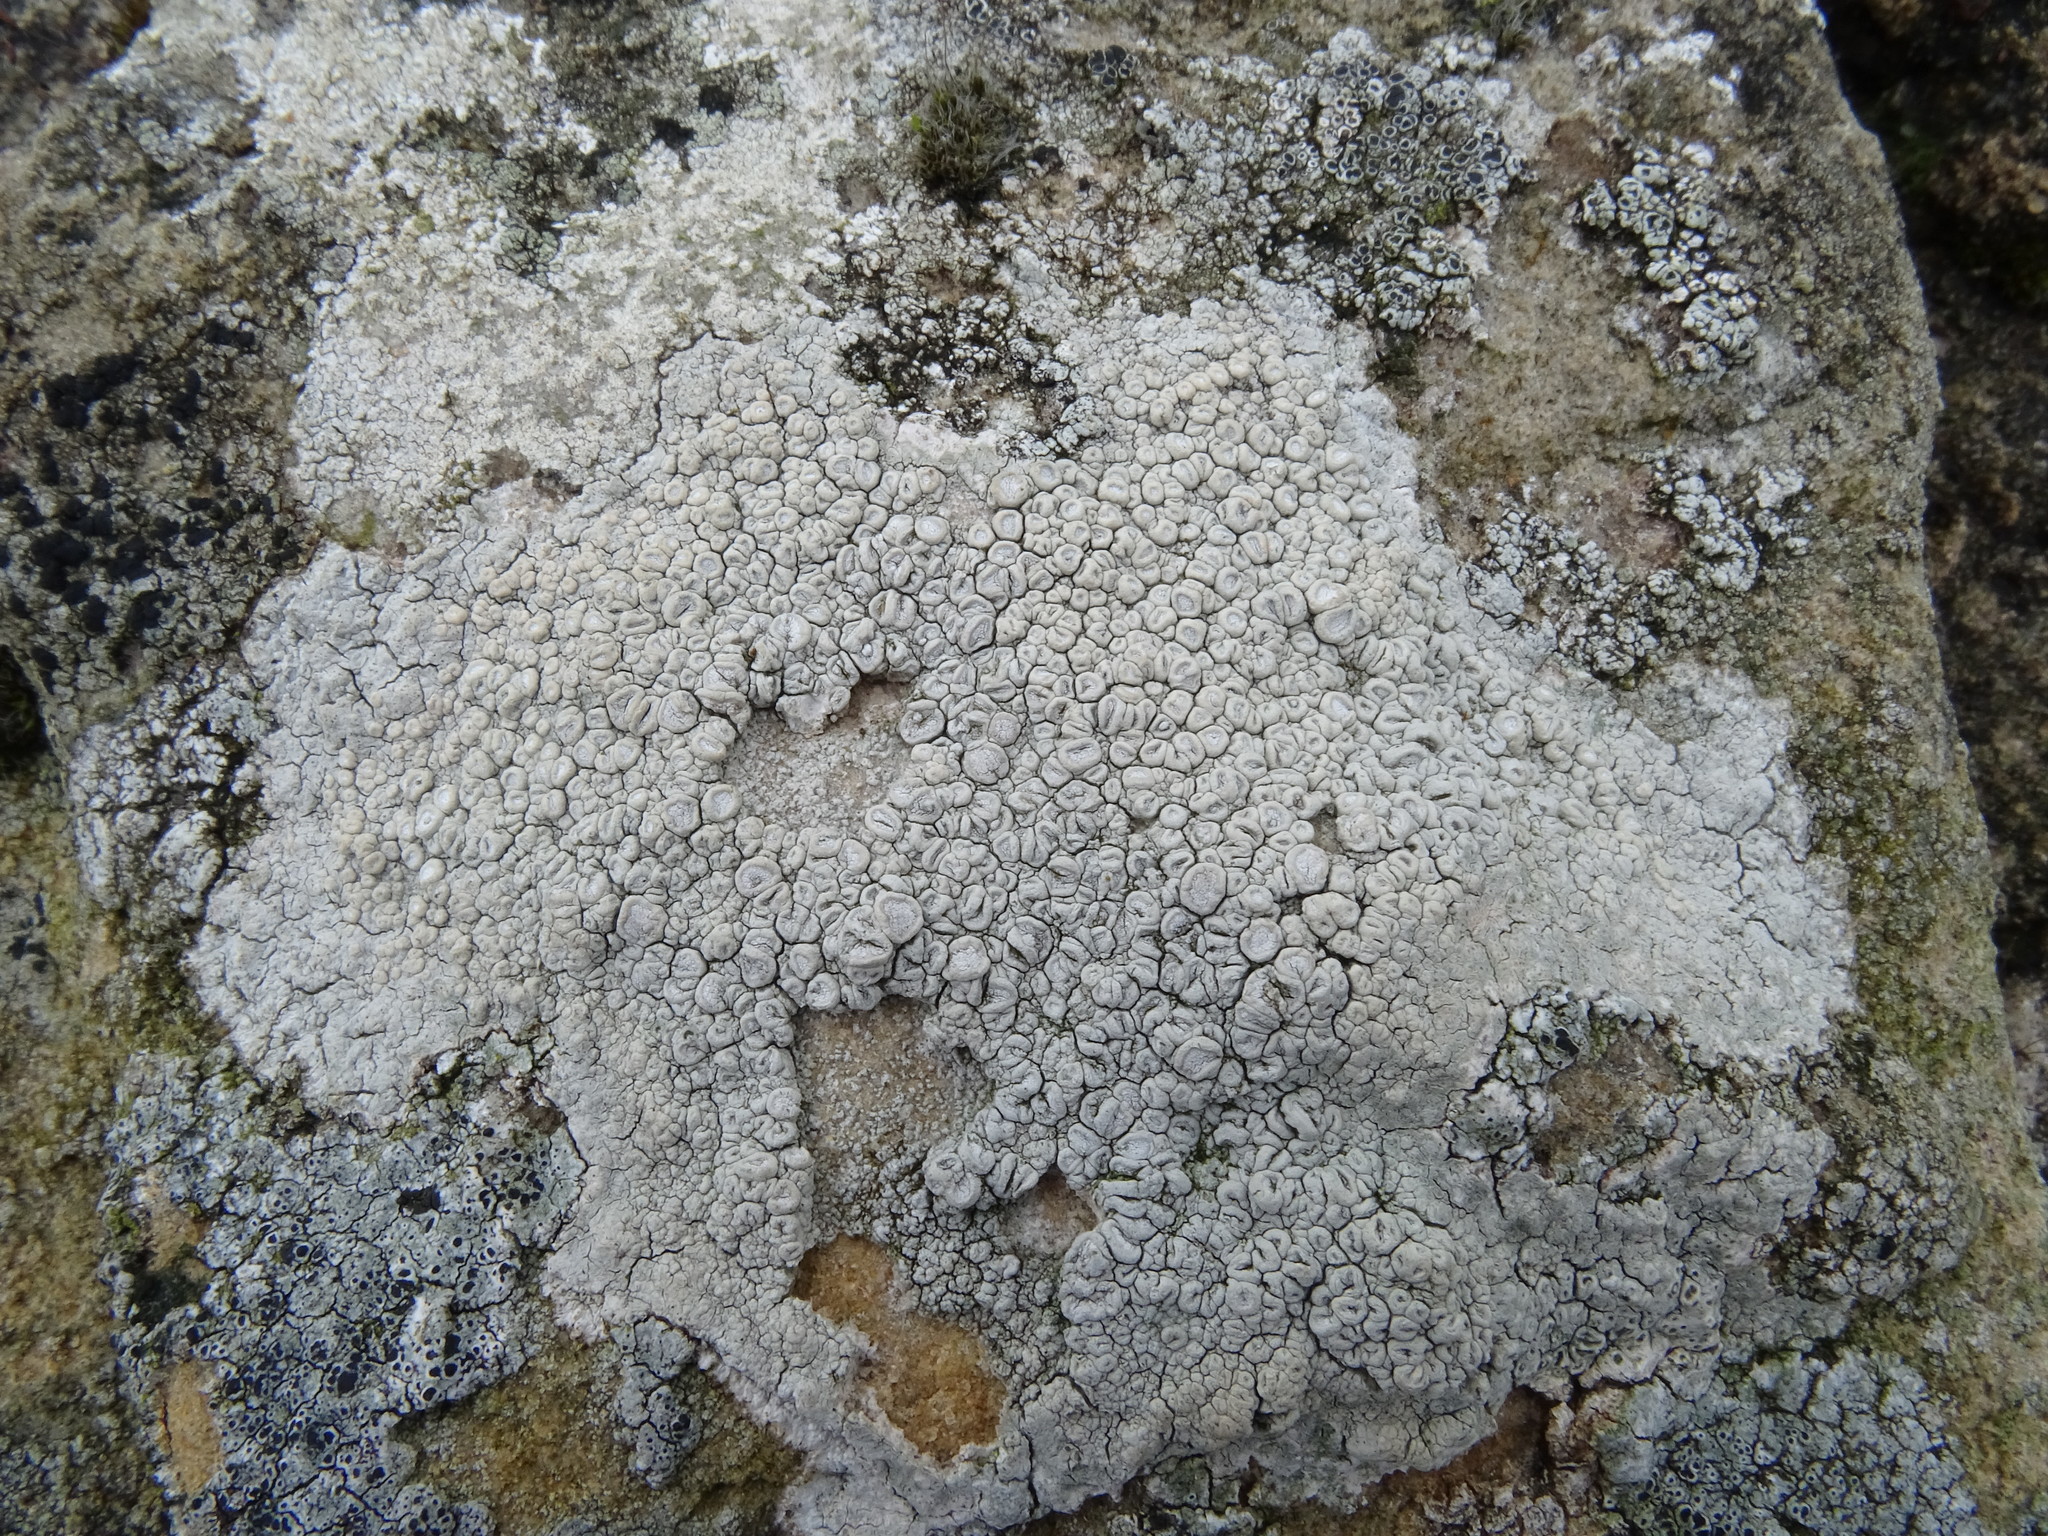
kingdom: Fungi
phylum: Ascomycota
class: Lecanoromycetes
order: Pertusariales
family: Ochrolechiaceae
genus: Ochrolechia
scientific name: Ochrolechia parella
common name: Crab's eye lichen
